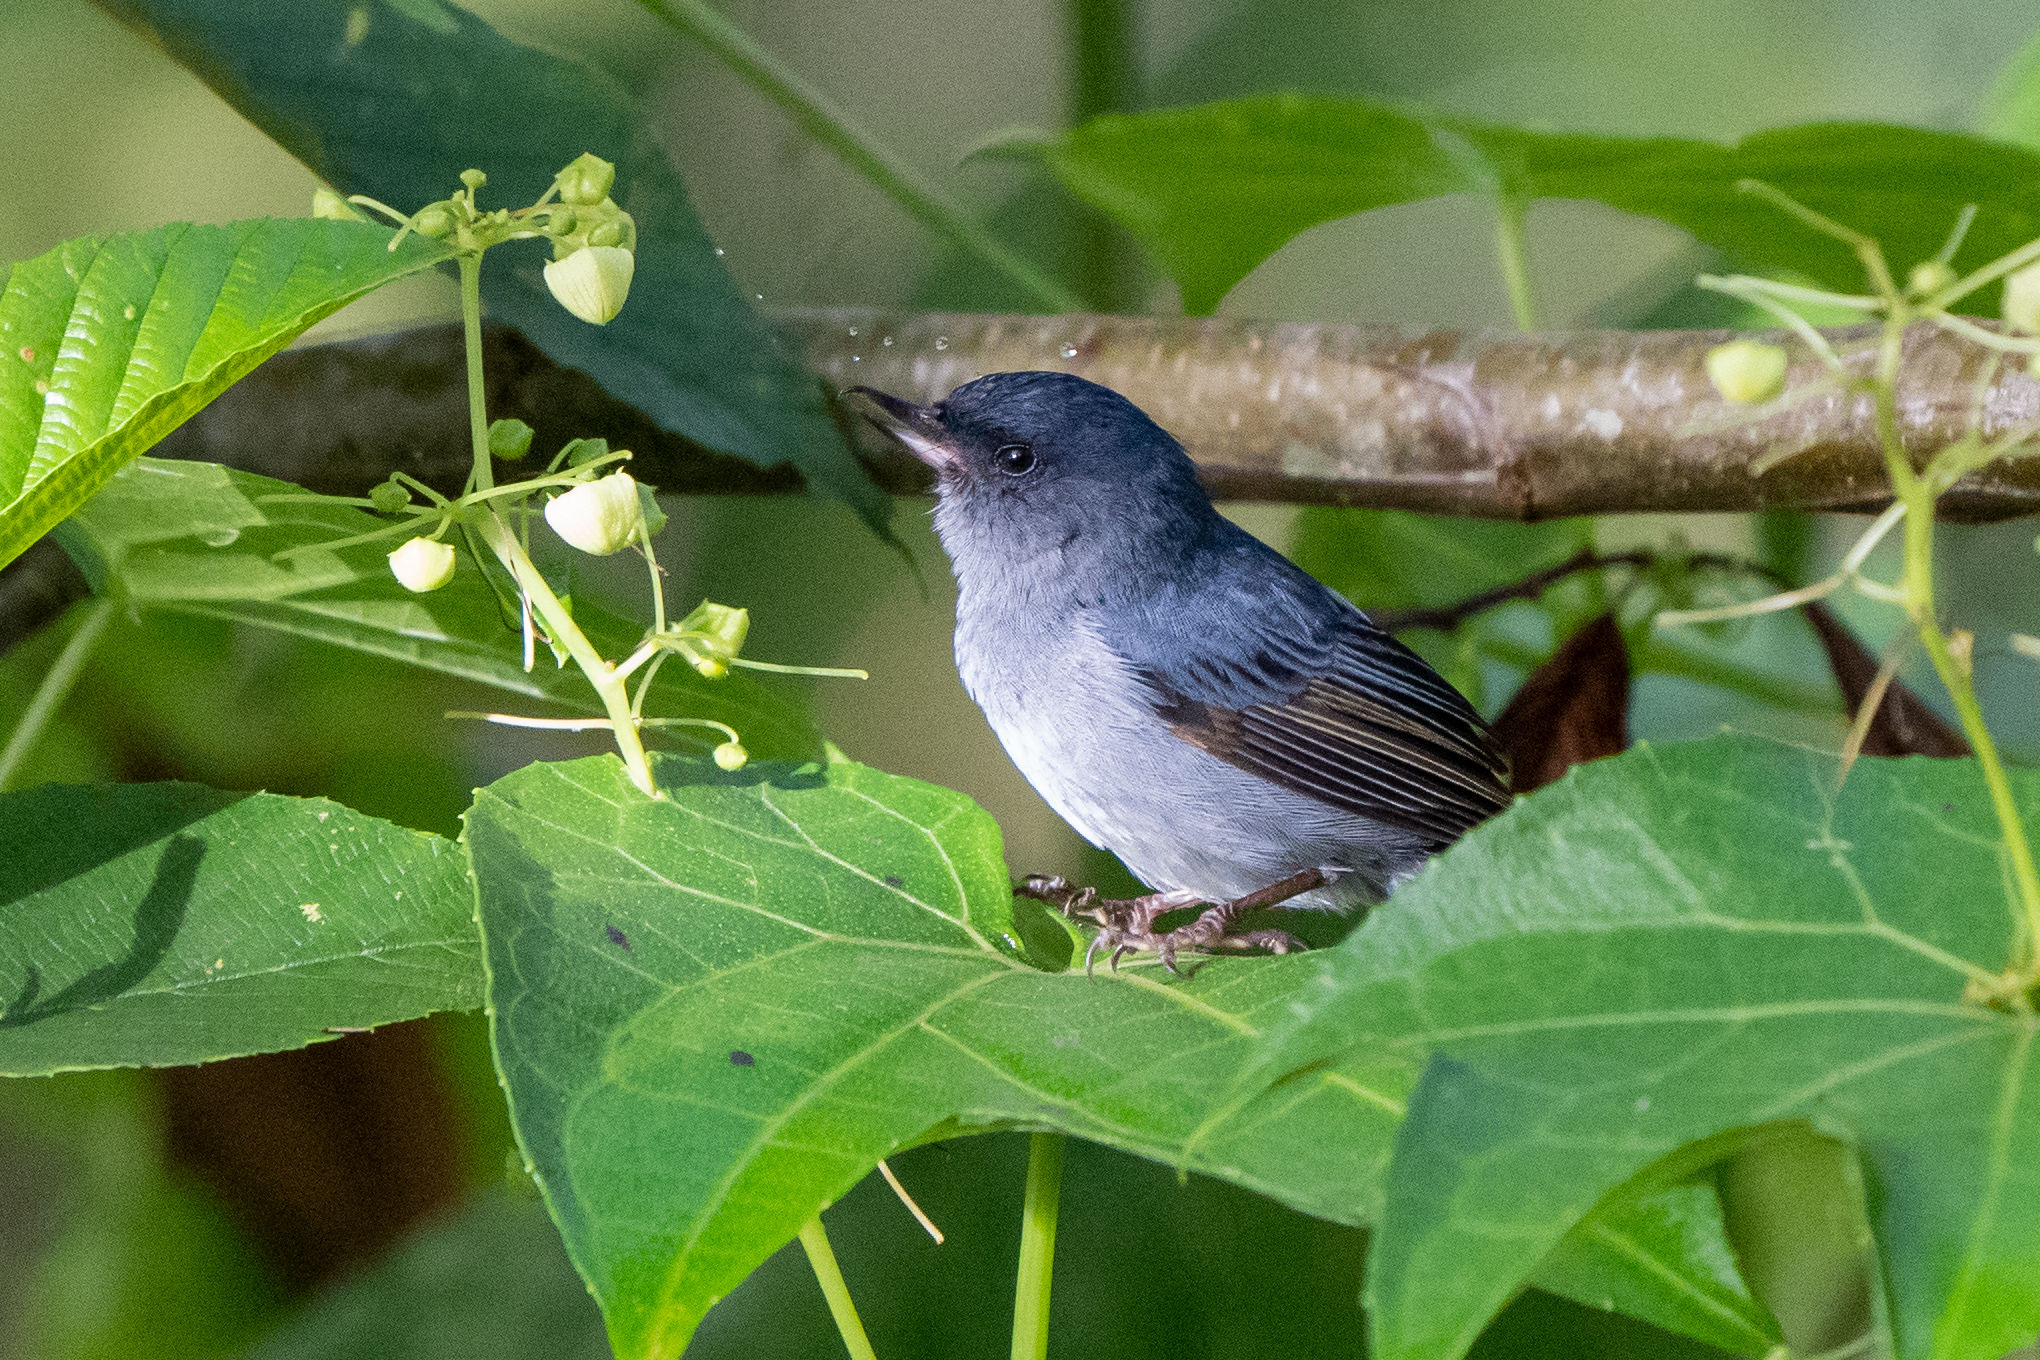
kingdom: Animalia
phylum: Chordata
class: Aves
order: Passeriformes
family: Thraupidae
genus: Diglossa
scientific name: Diglossa plumbea
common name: Slaty flowerpiercer
